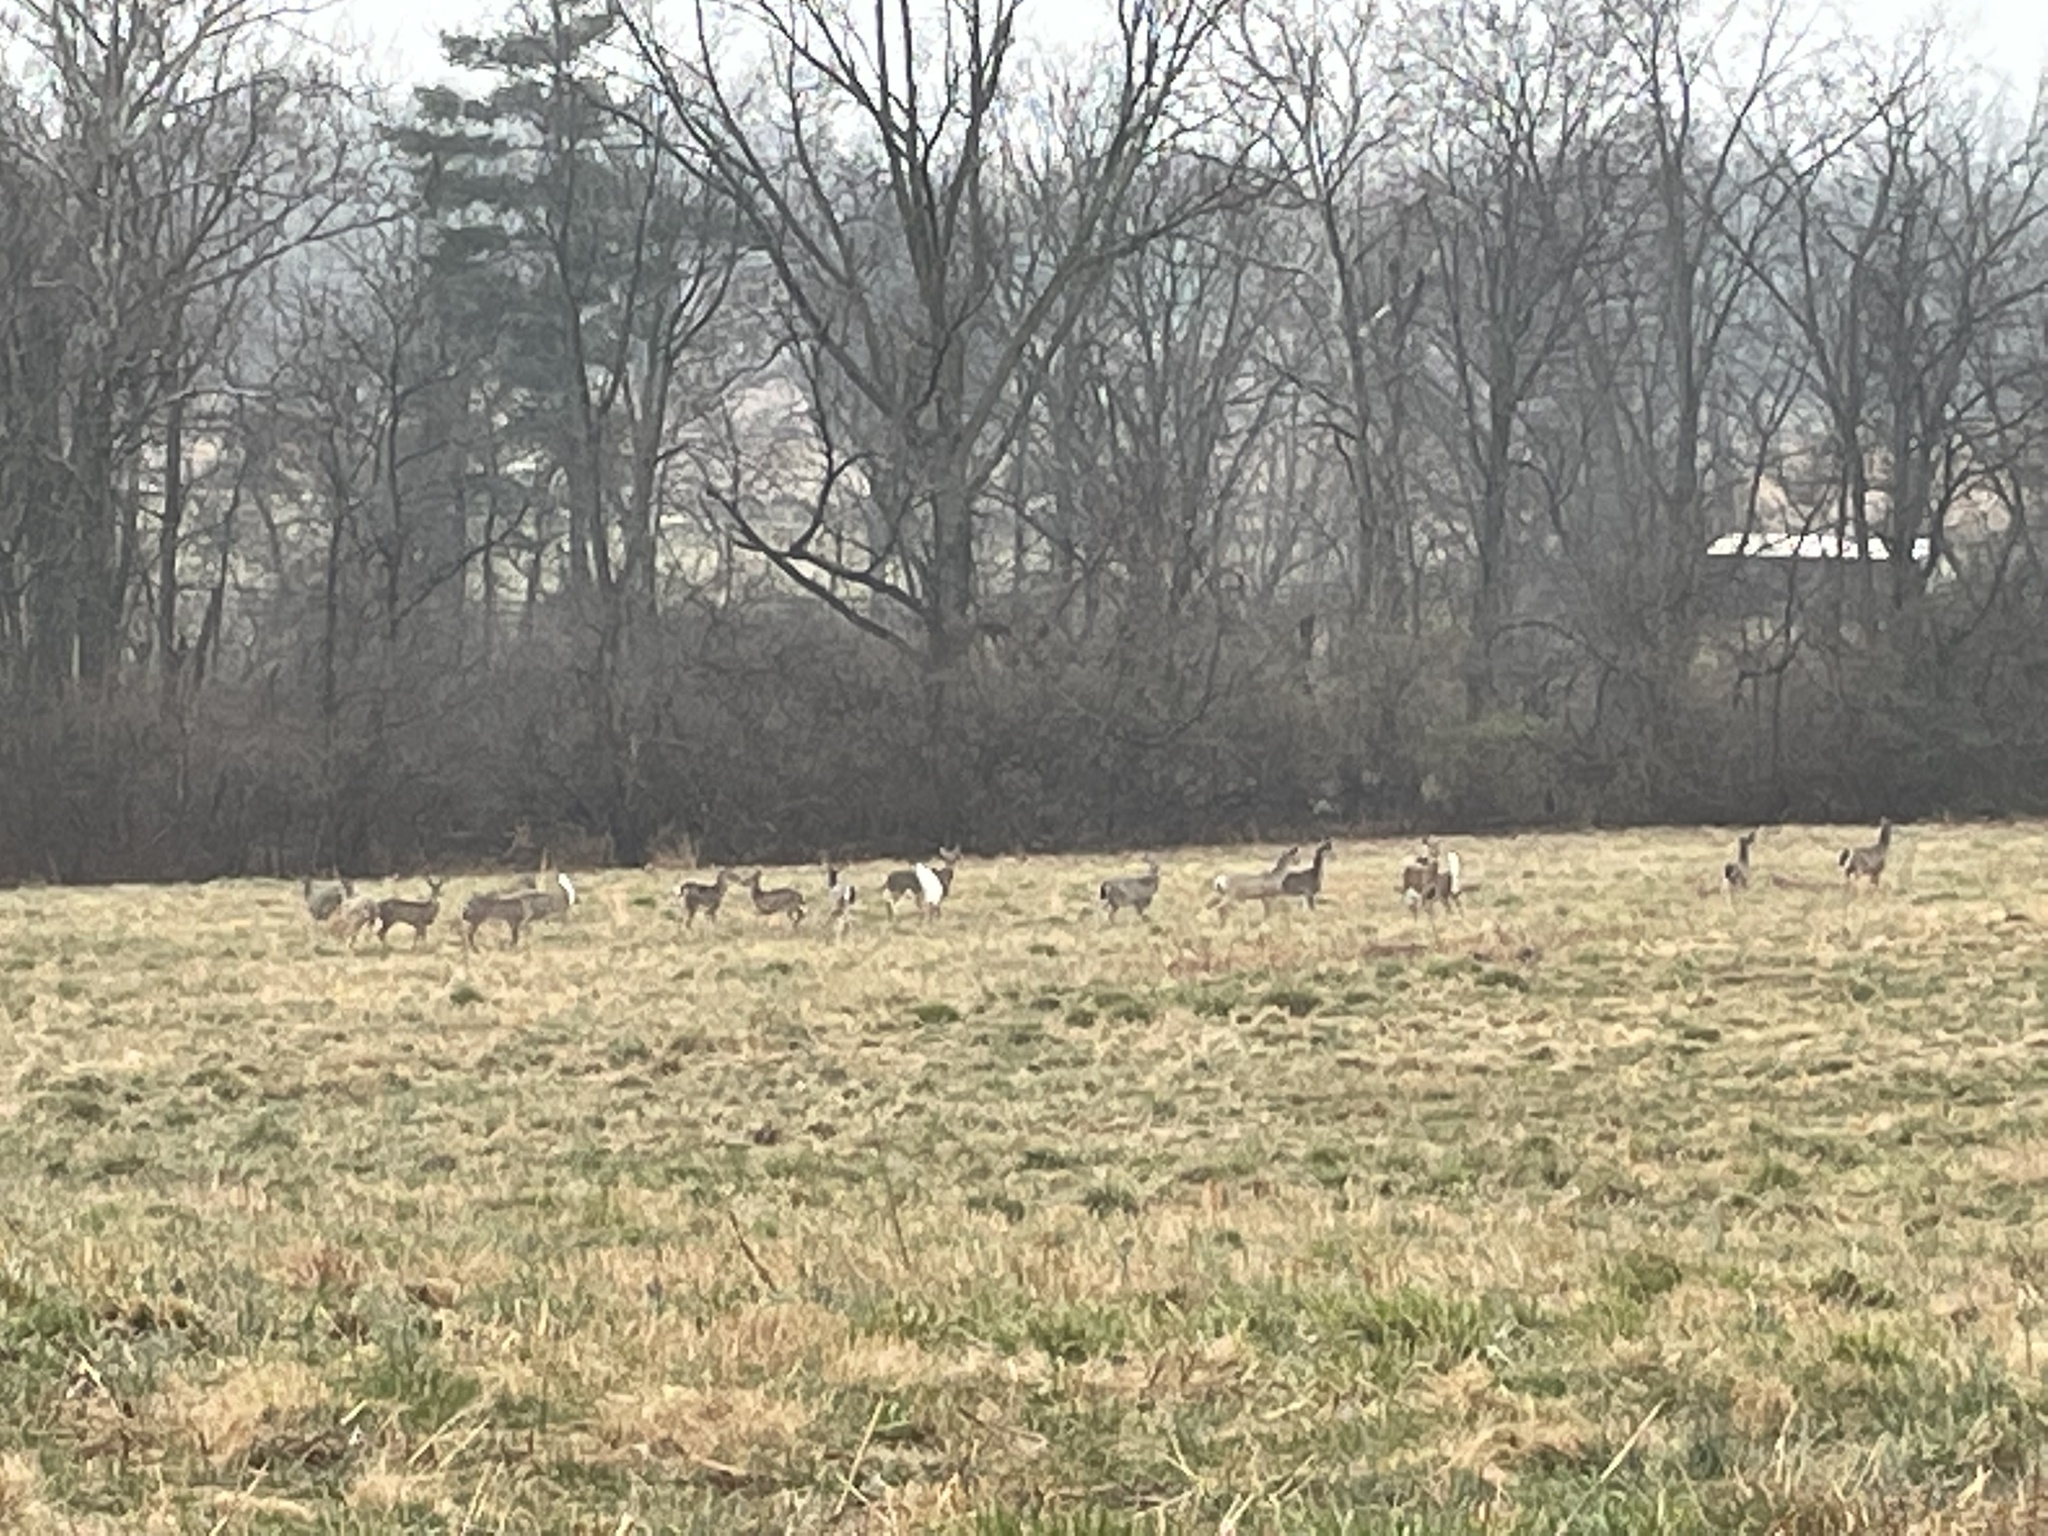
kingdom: Animalia
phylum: Chordata
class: Mammalia
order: Artiodactyla
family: Cervidae
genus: Odocoileus
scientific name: Odocoileus virginianus
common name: White-tailed deer
